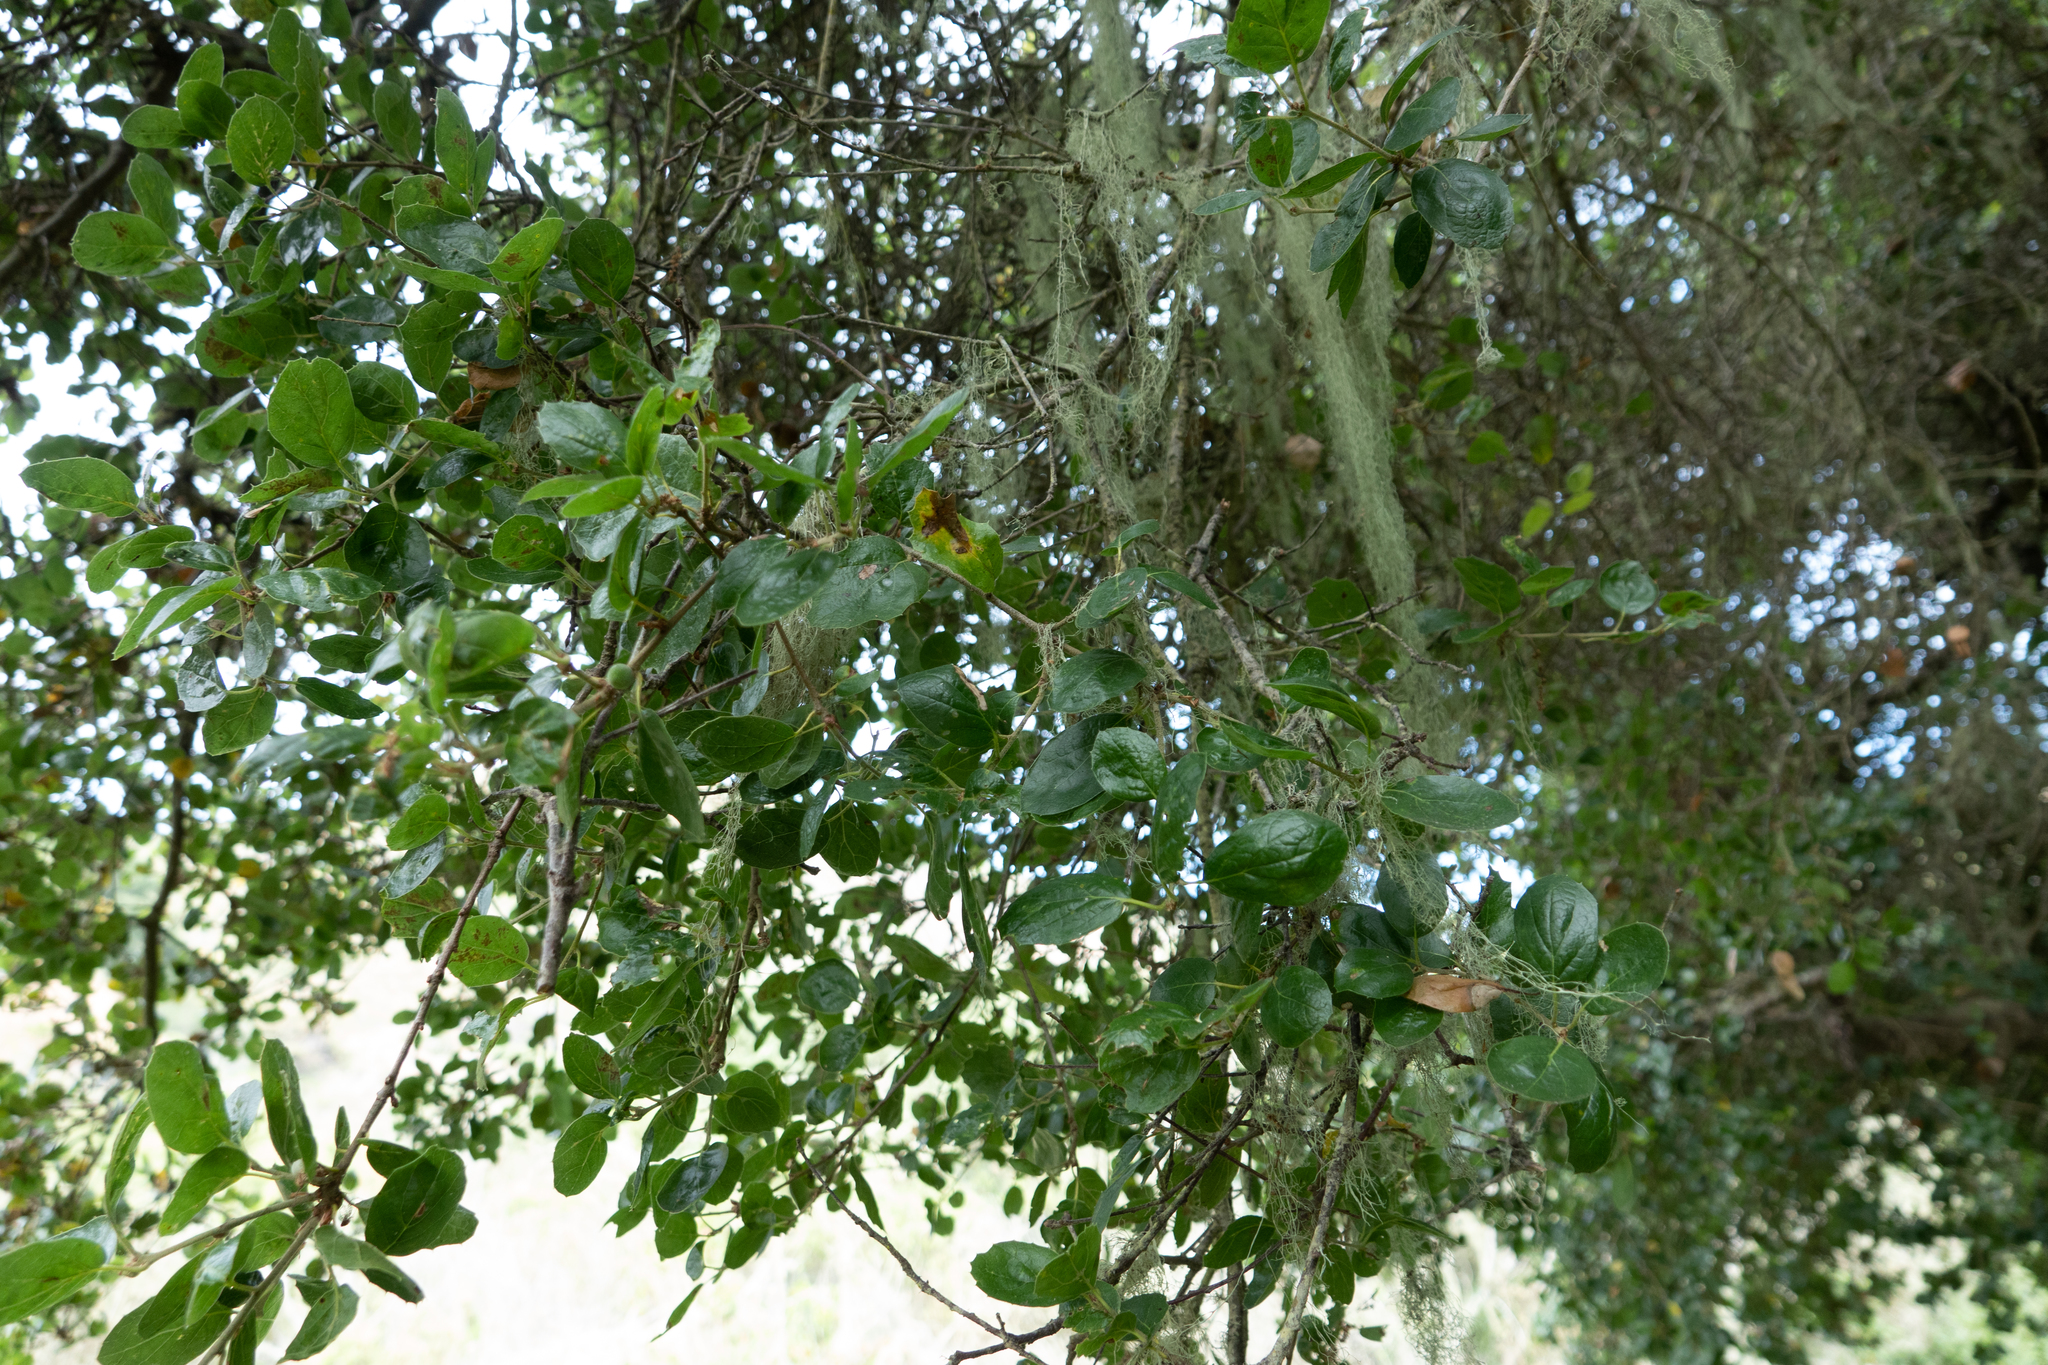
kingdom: Plantae
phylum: Tracheophyta
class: Magnoliopsida
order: Fagales
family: Fagaceae
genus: Quercus
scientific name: Quercus agrifolia
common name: California live oak
